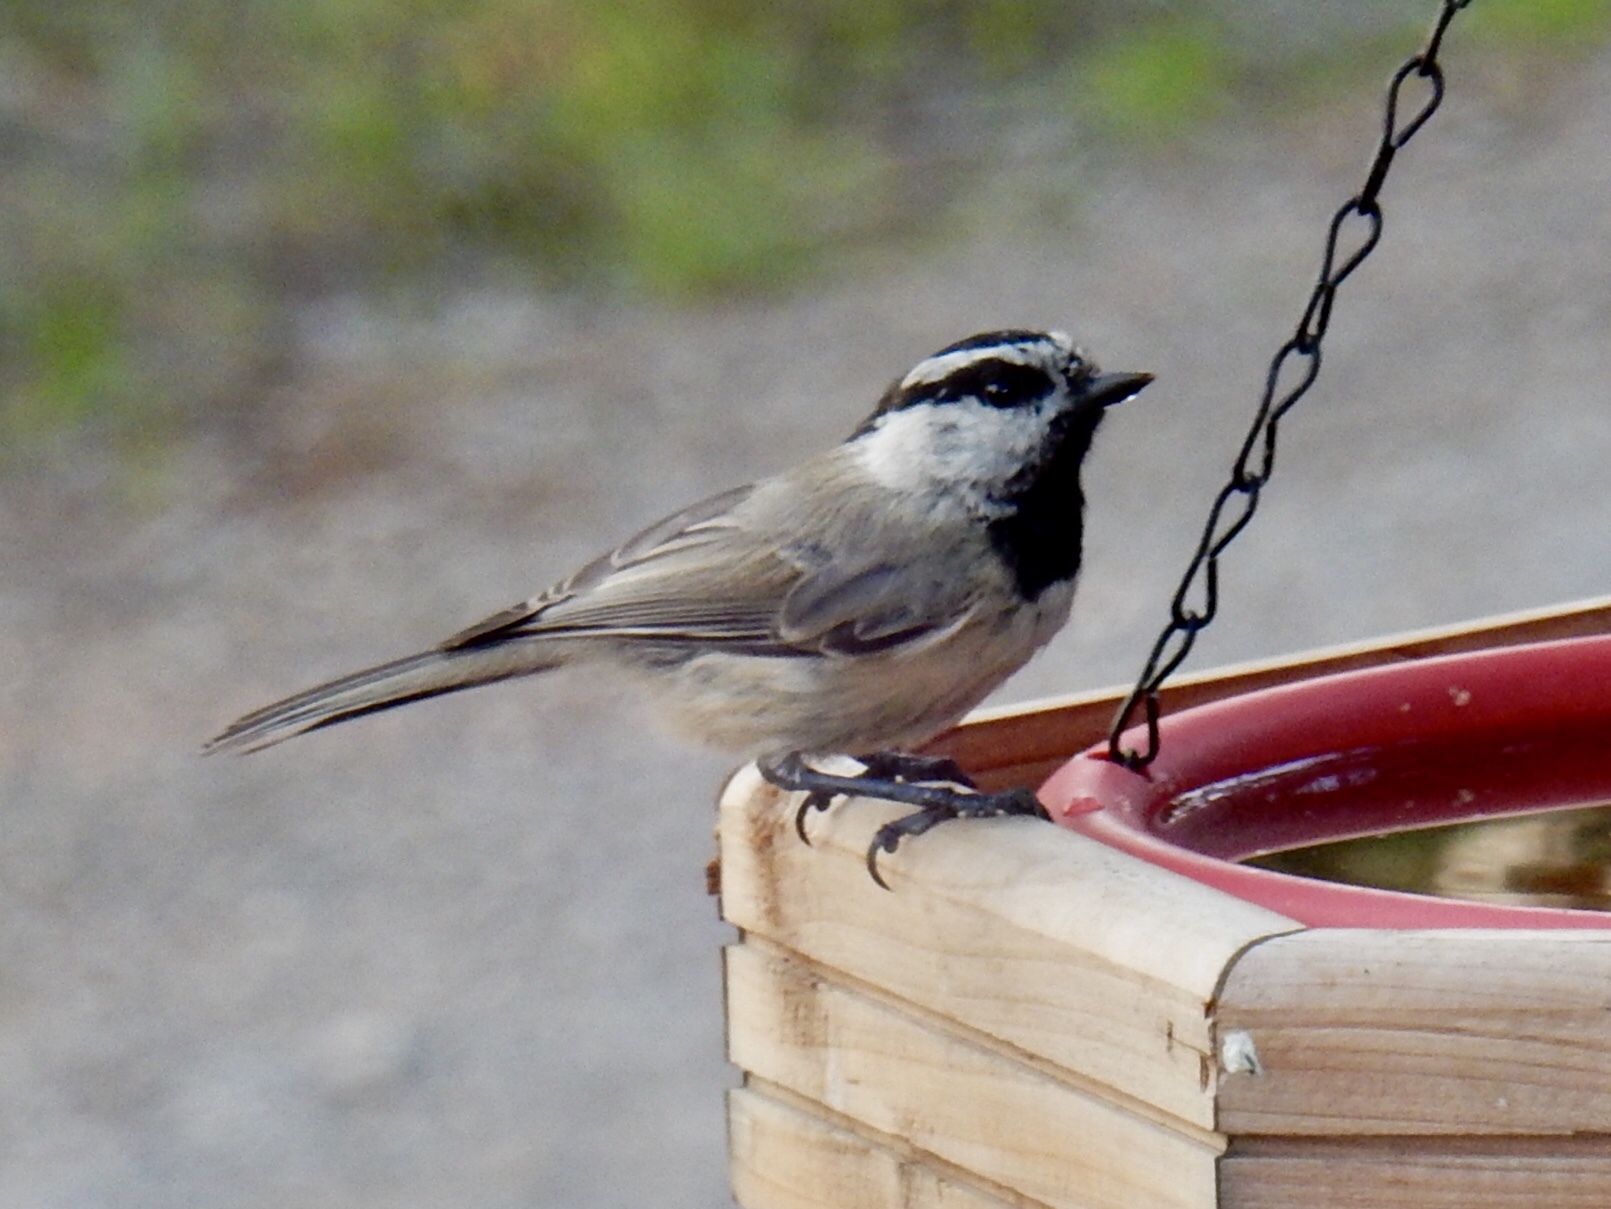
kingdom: Animalia
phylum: Chordata
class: Aves
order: Passeriformes
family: Paridae
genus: Poecile
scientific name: Poecile gambeli
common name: Mountain chickadee
